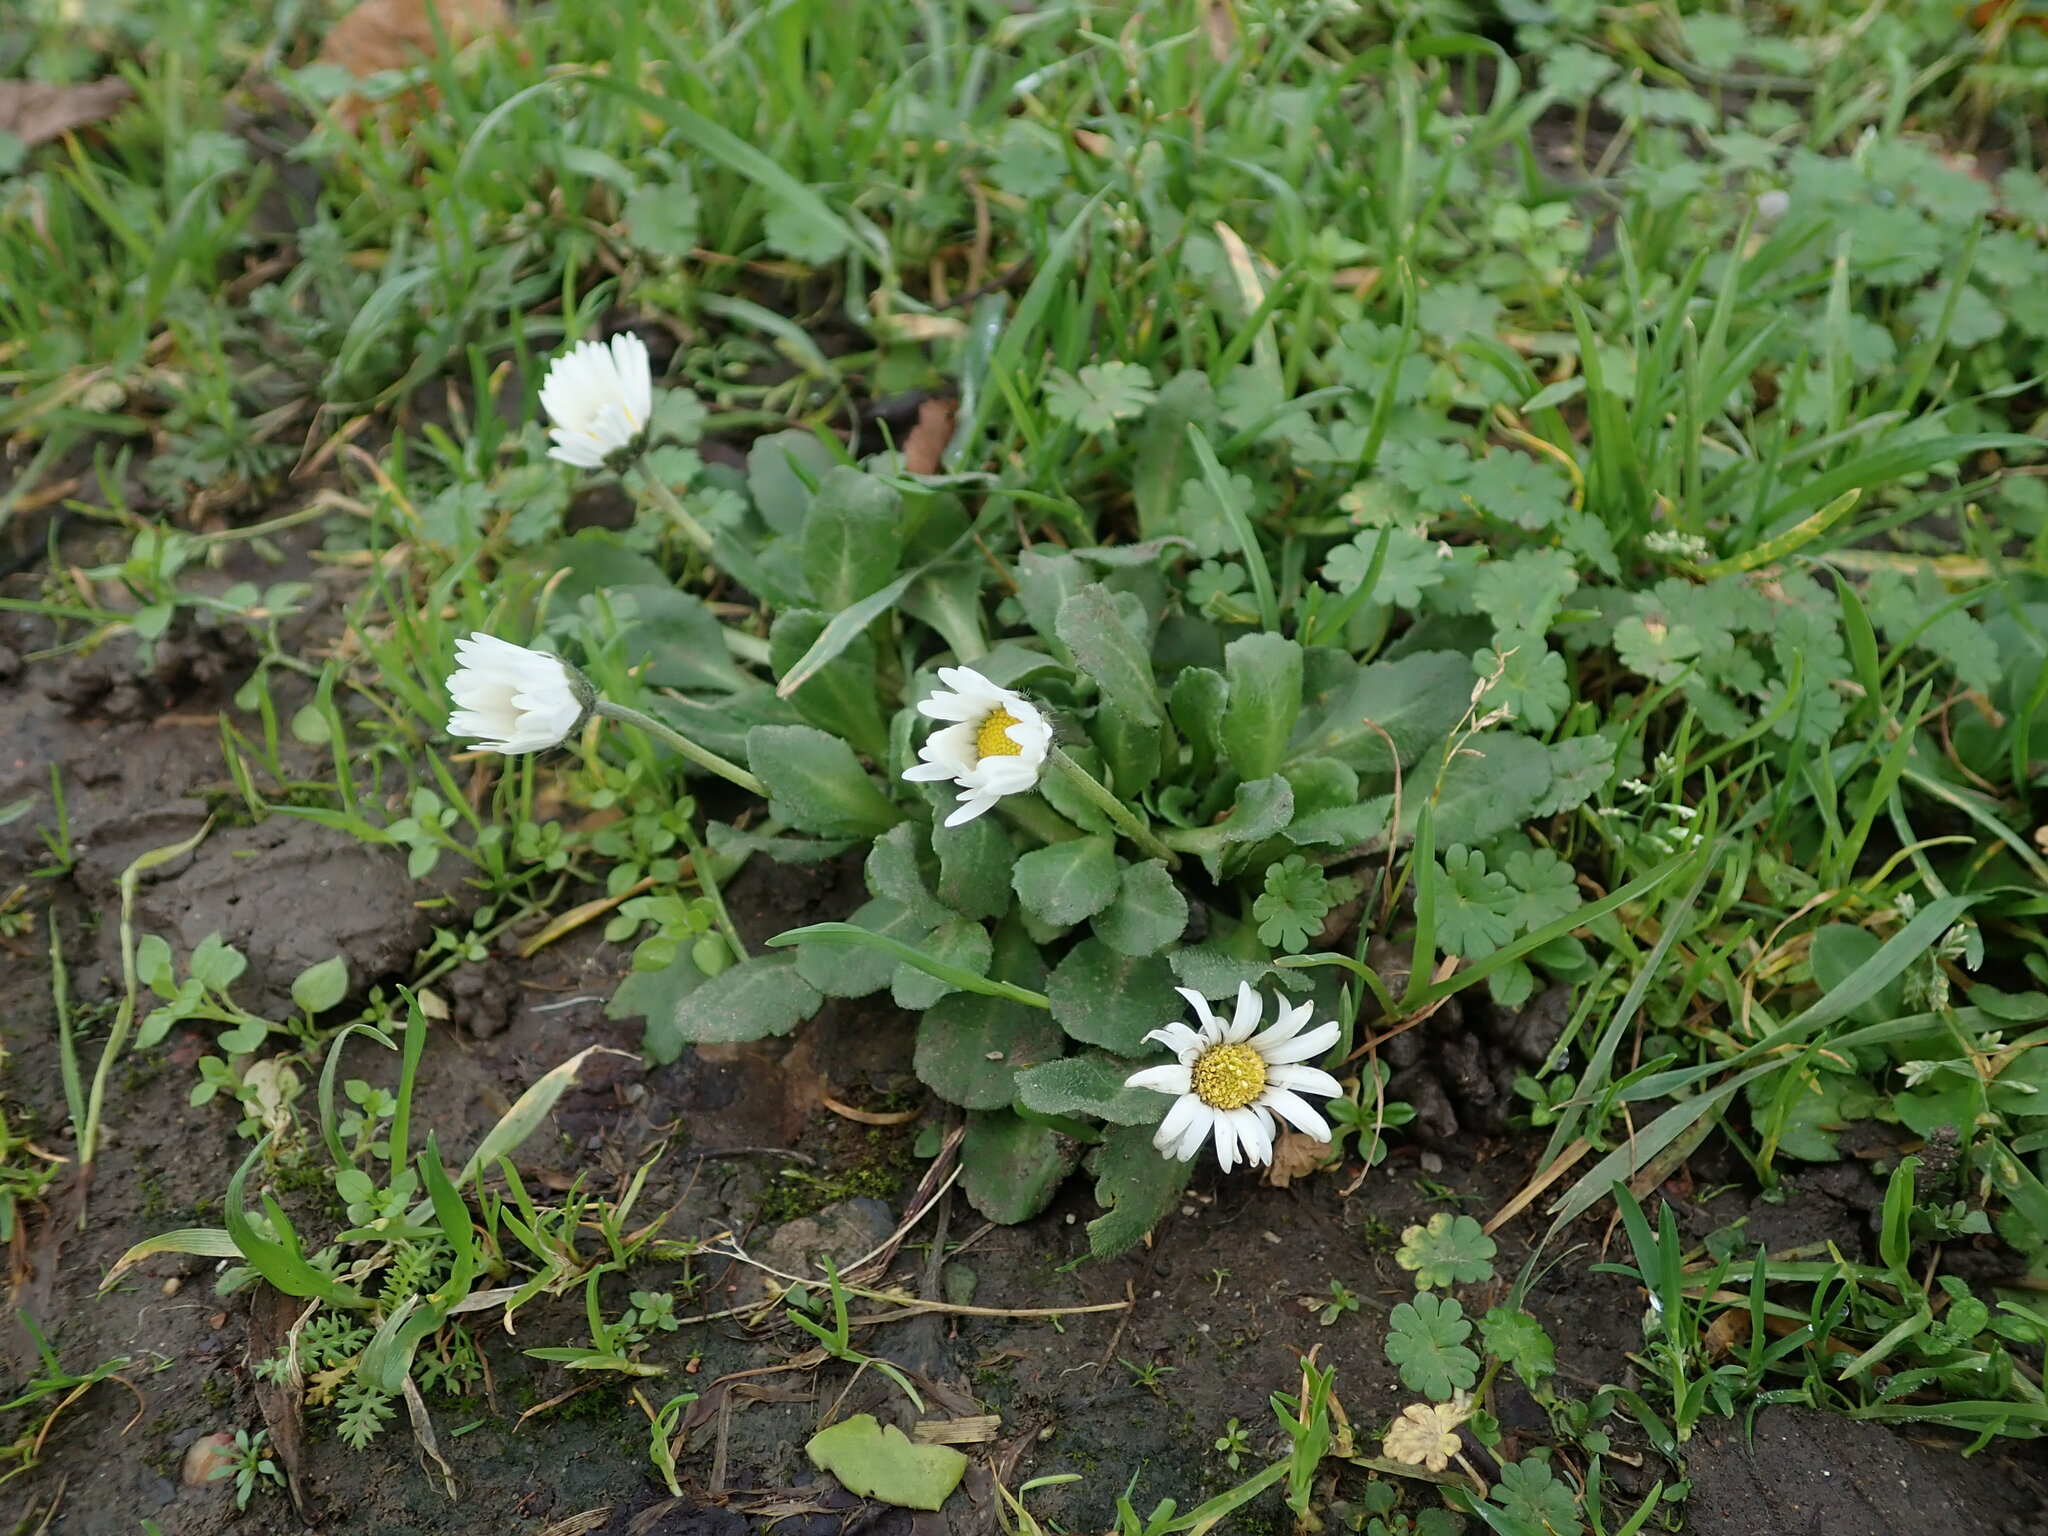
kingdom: Plantae
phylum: Tracheophyta
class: Magnoliopsida
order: Asterales
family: Asteraceae
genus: Bellis
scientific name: Bellis perennis
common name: Lawndaisy
